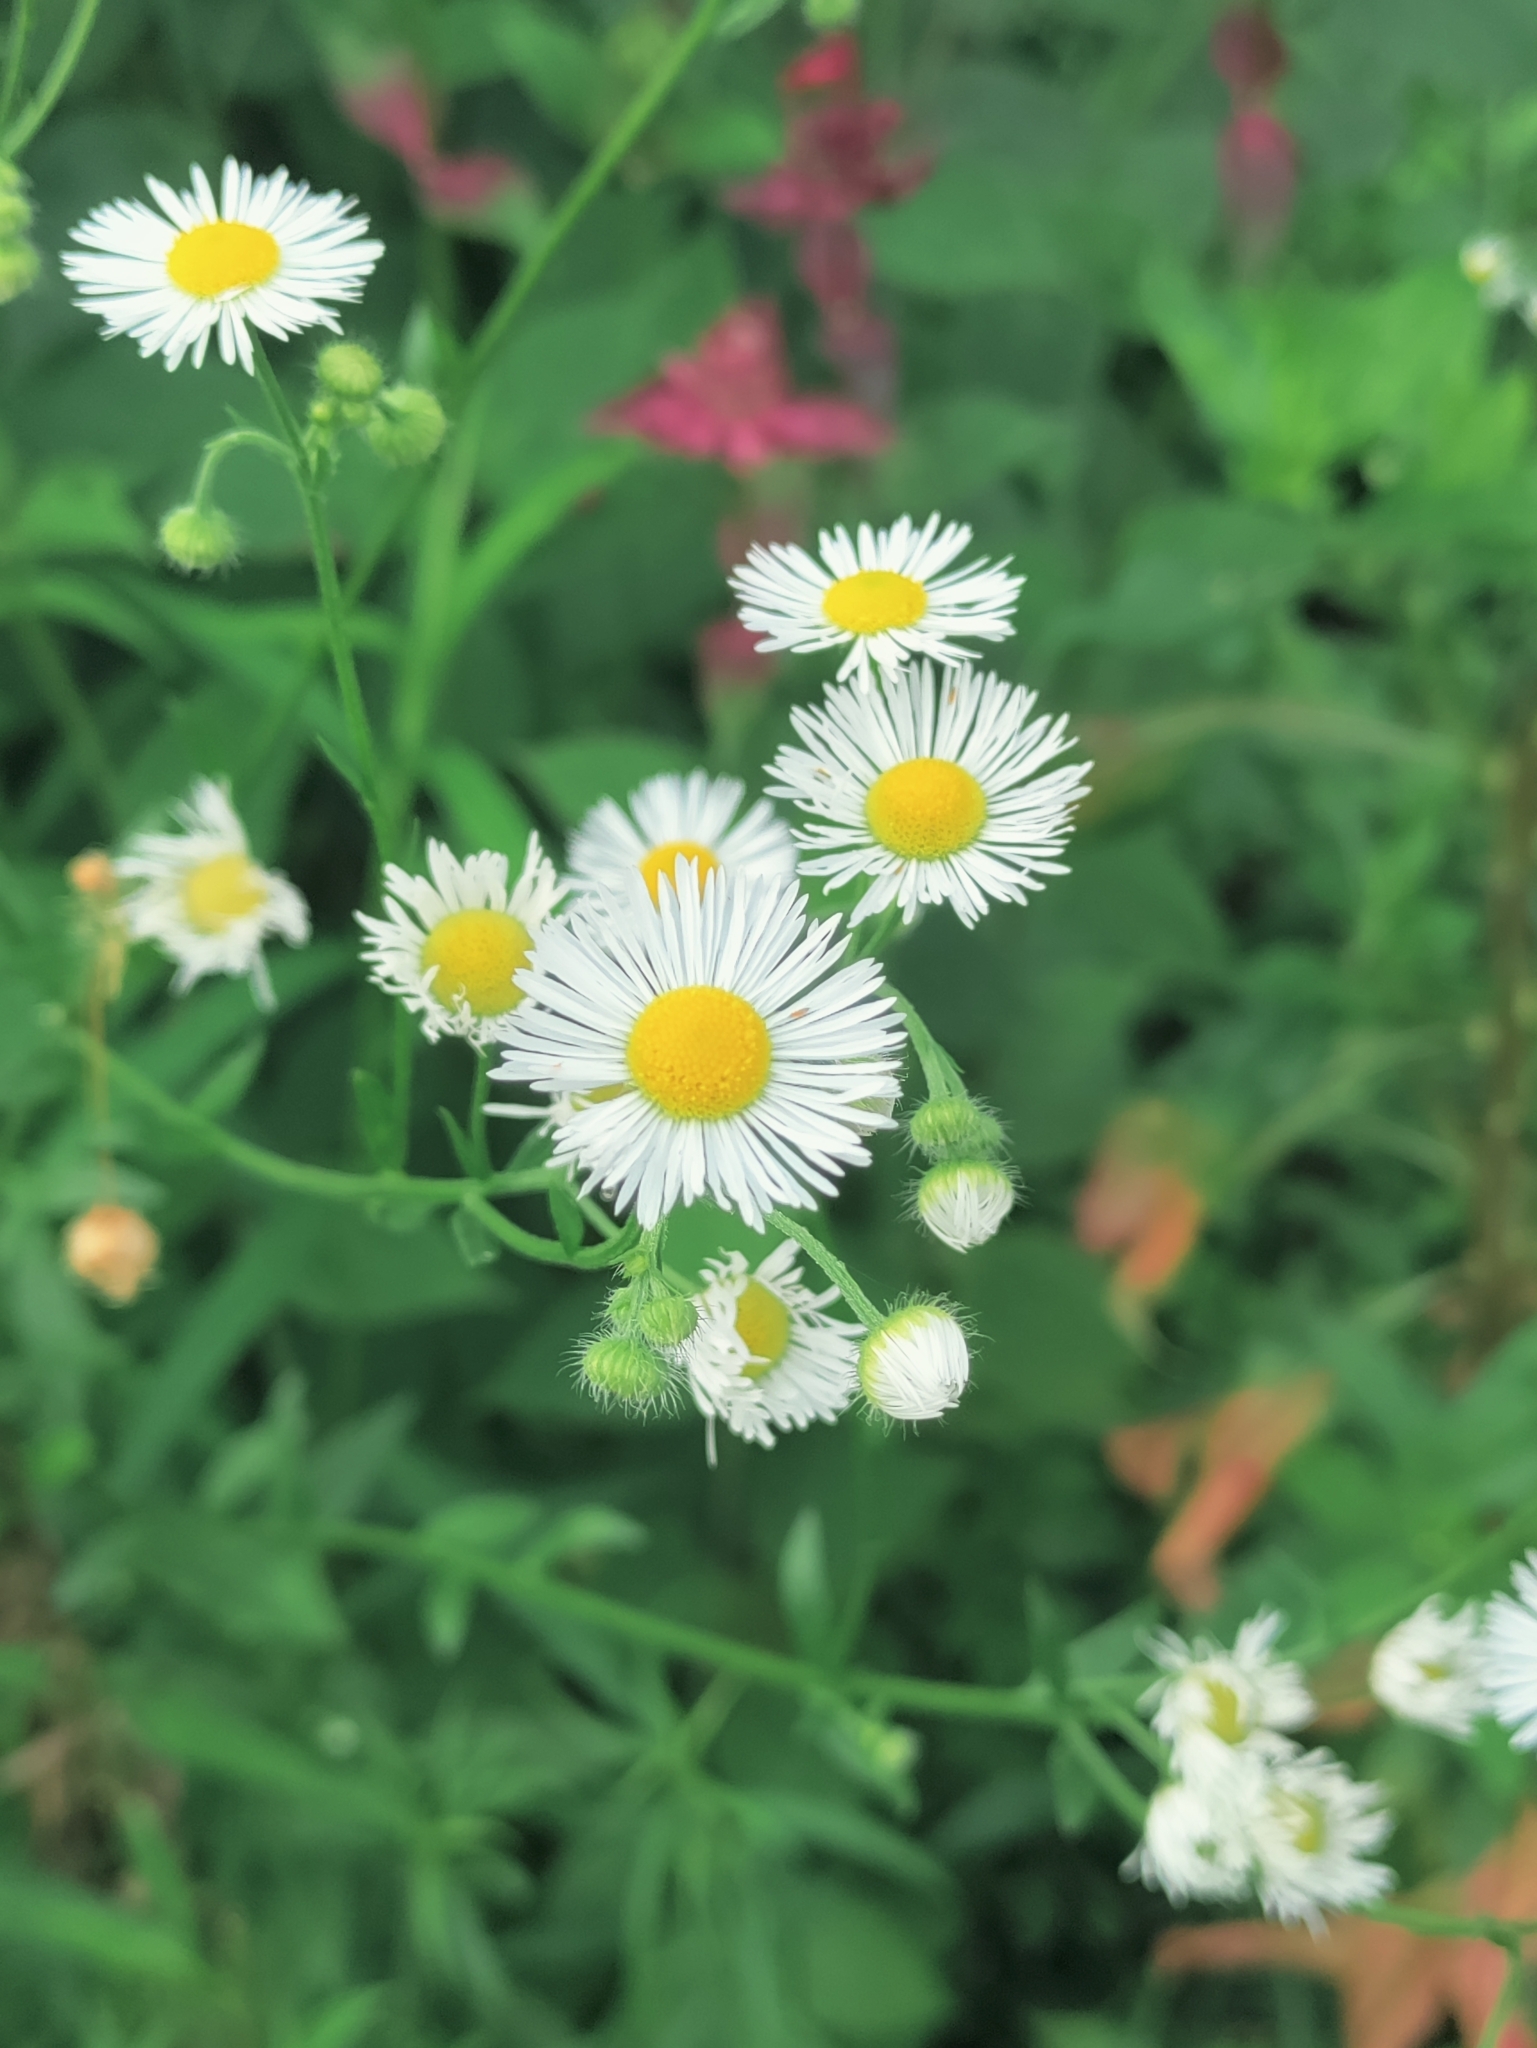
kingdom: Plantae
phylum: Tracheophyta
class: Magnoliopsida
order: Asterales
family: Asteraceae
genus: Erigeron
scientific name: Erigeron annuus
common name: Tall fleabane
